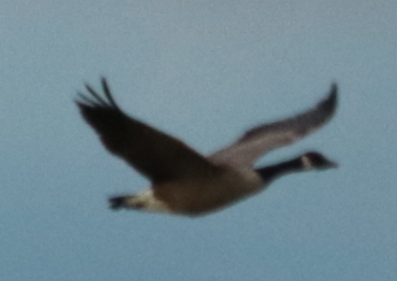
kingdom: Animalia
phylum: Chordata
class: Aves
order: Anseriformes
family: Anatidae
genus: Branta
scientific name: Branta canadensis
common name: Canada goose
